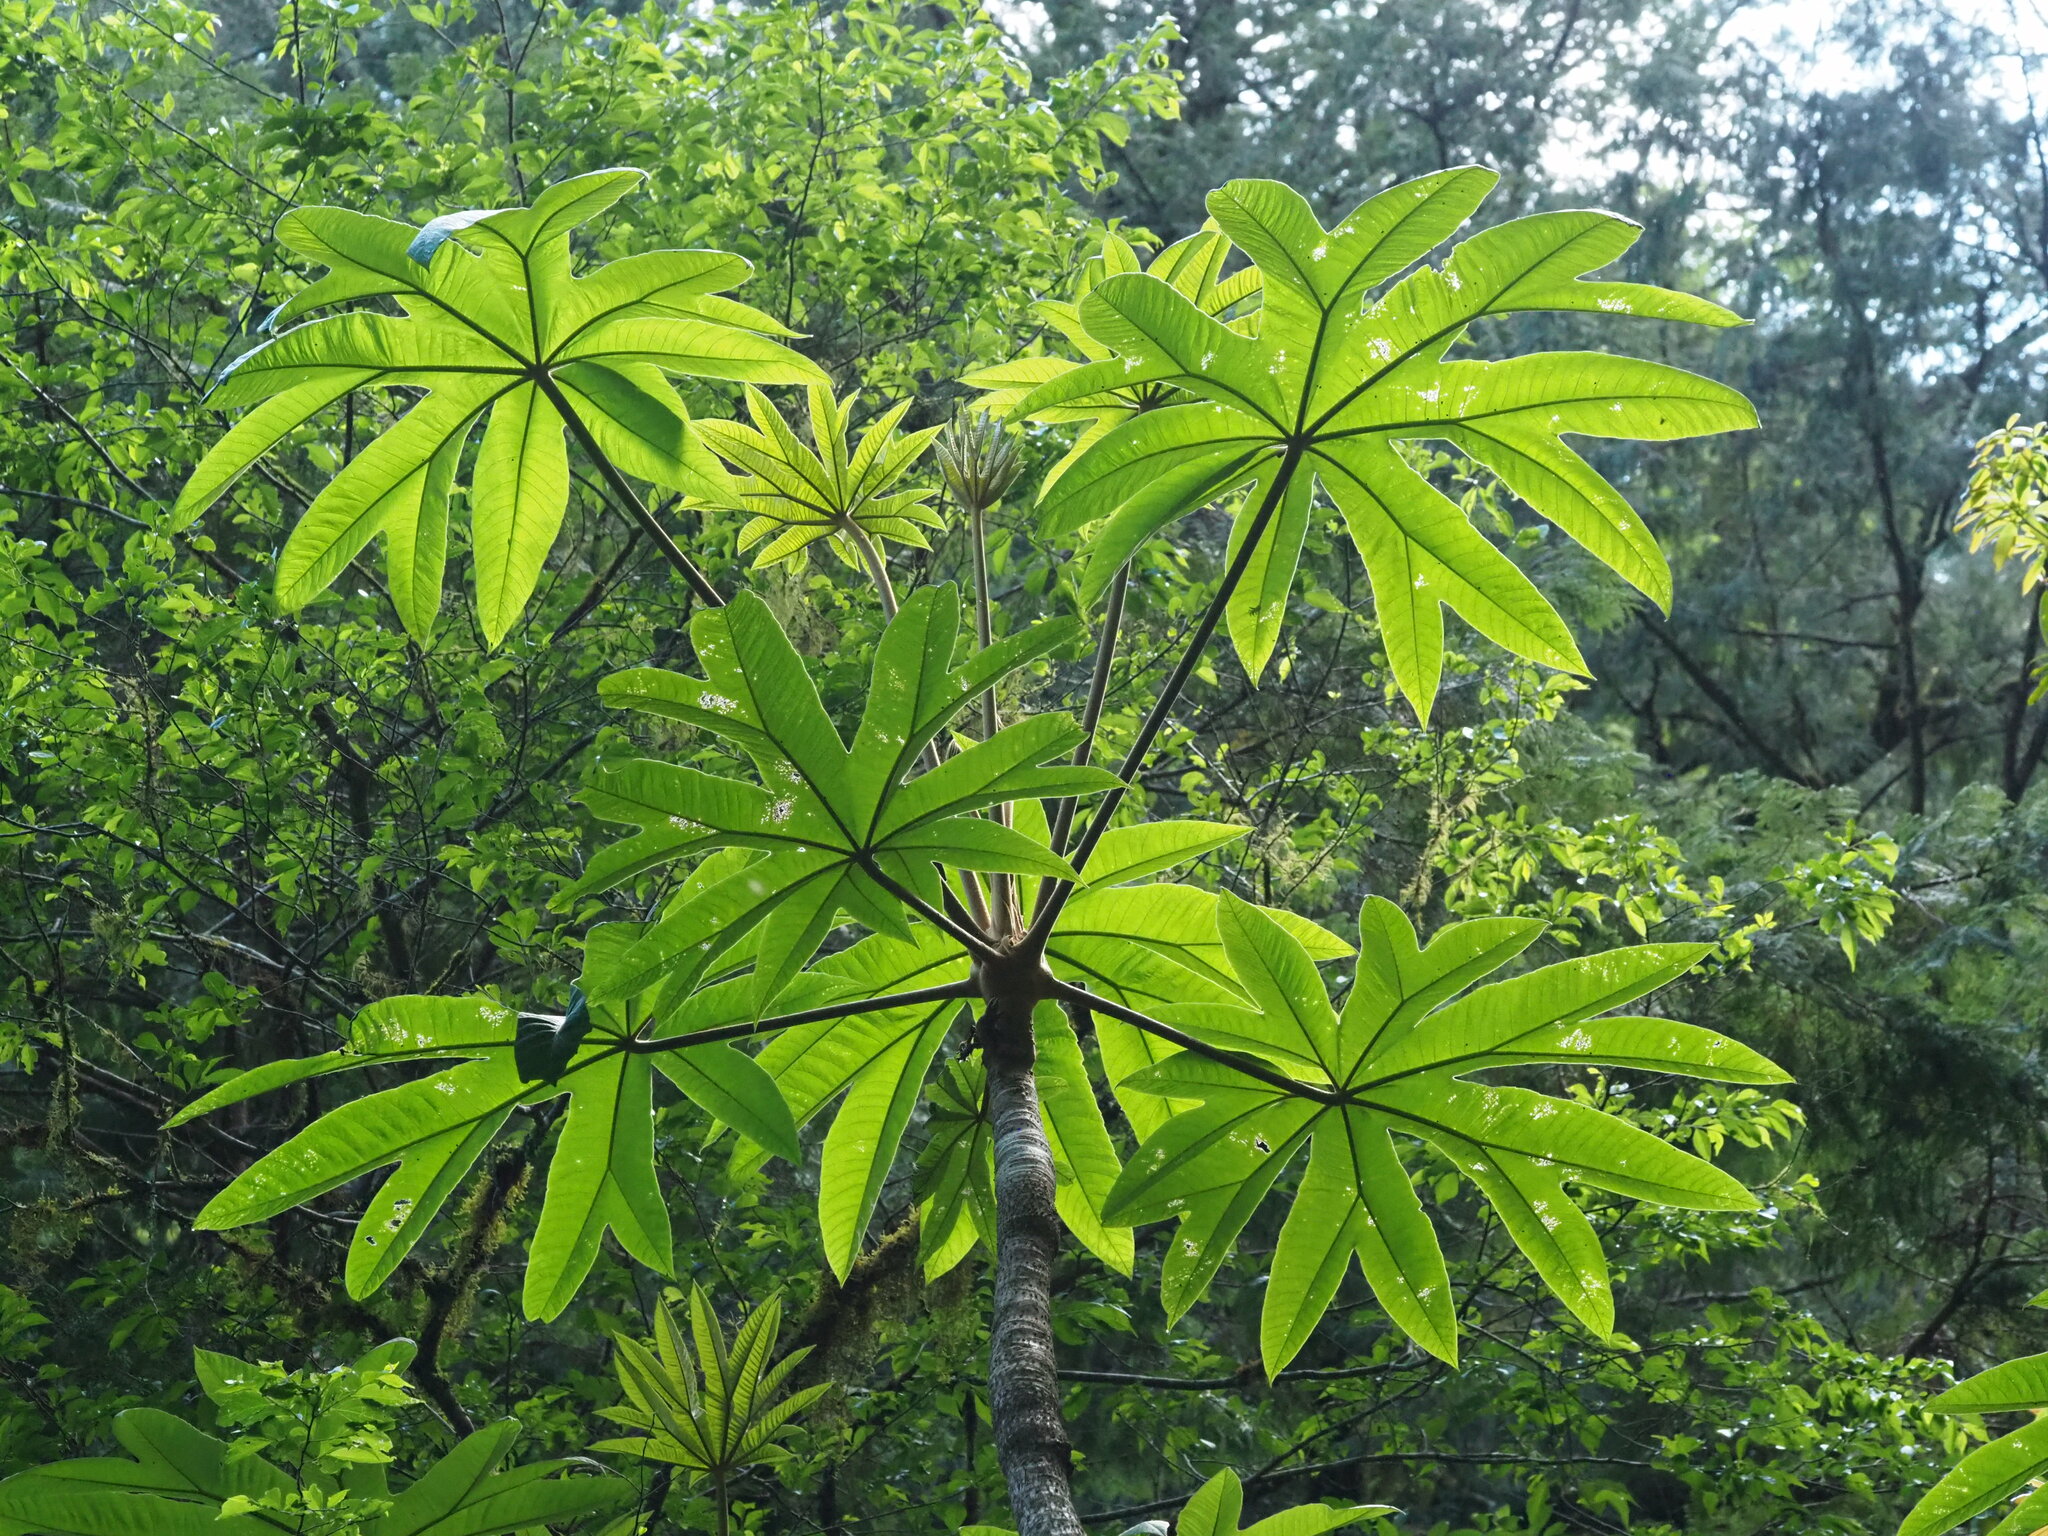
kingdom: Plantae
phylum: Tracheophyta
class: Magnoliopsida
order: Apiales
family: Araliaceae
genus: Tetrapanax
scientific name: Tetrapanax papyrifer
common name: Rice-paper plant
